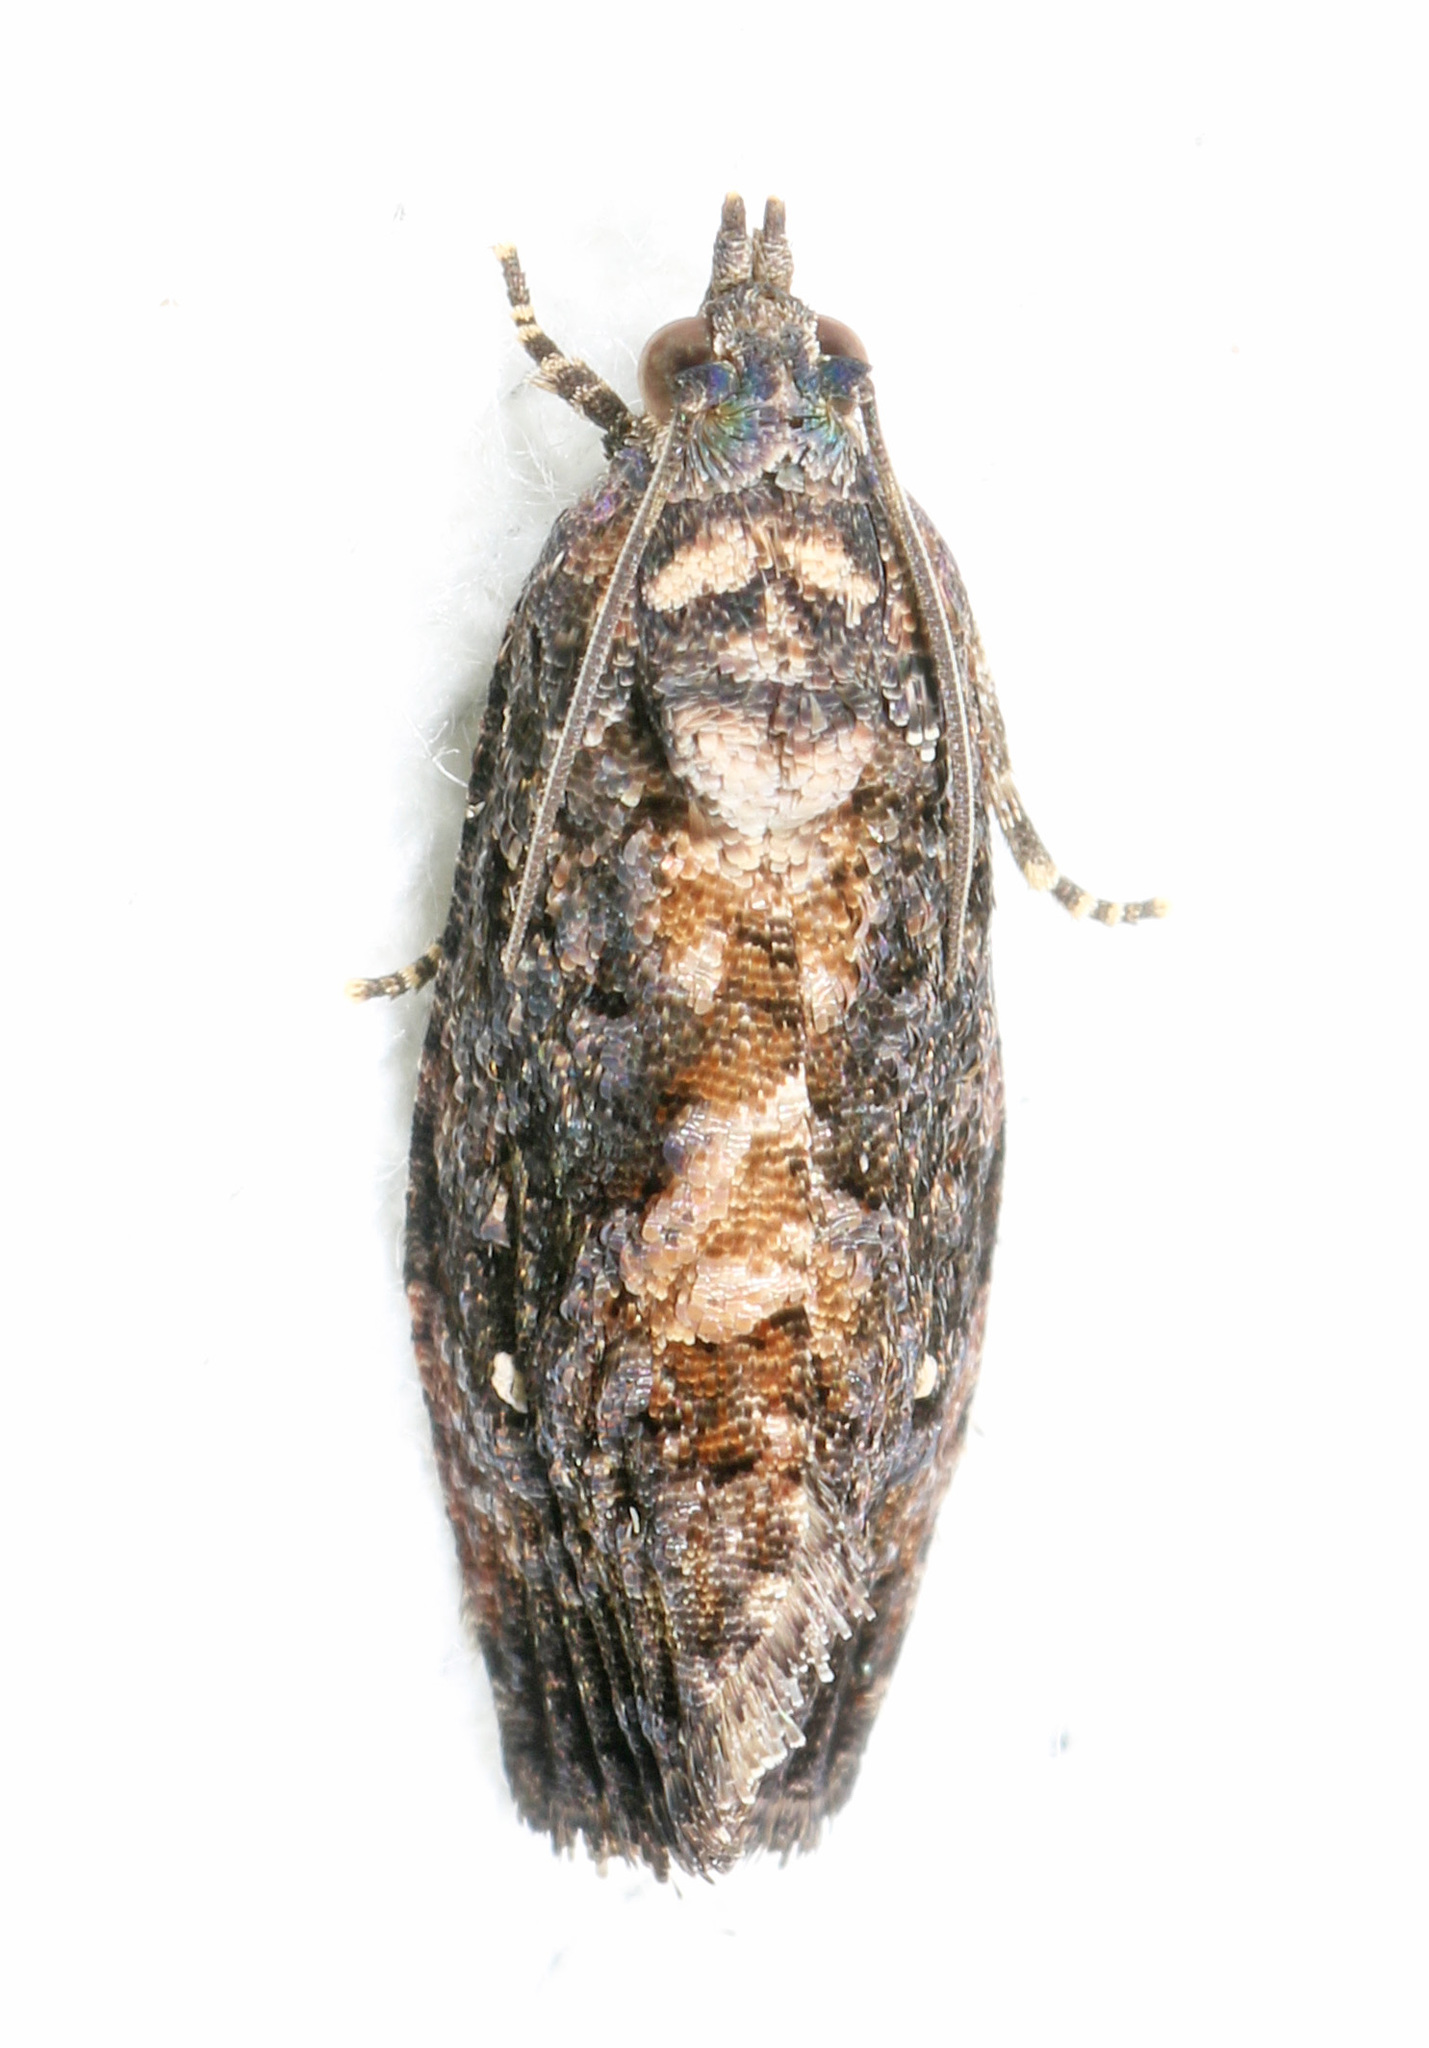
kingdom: Animalia
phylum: Arthropoda
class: Insecta
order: Lepidoptera
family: Tortricidae
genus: Gymnandrosoma
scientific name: Gymnandrosoma punctidiscanum
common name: Dotted ecdytolopha moth
